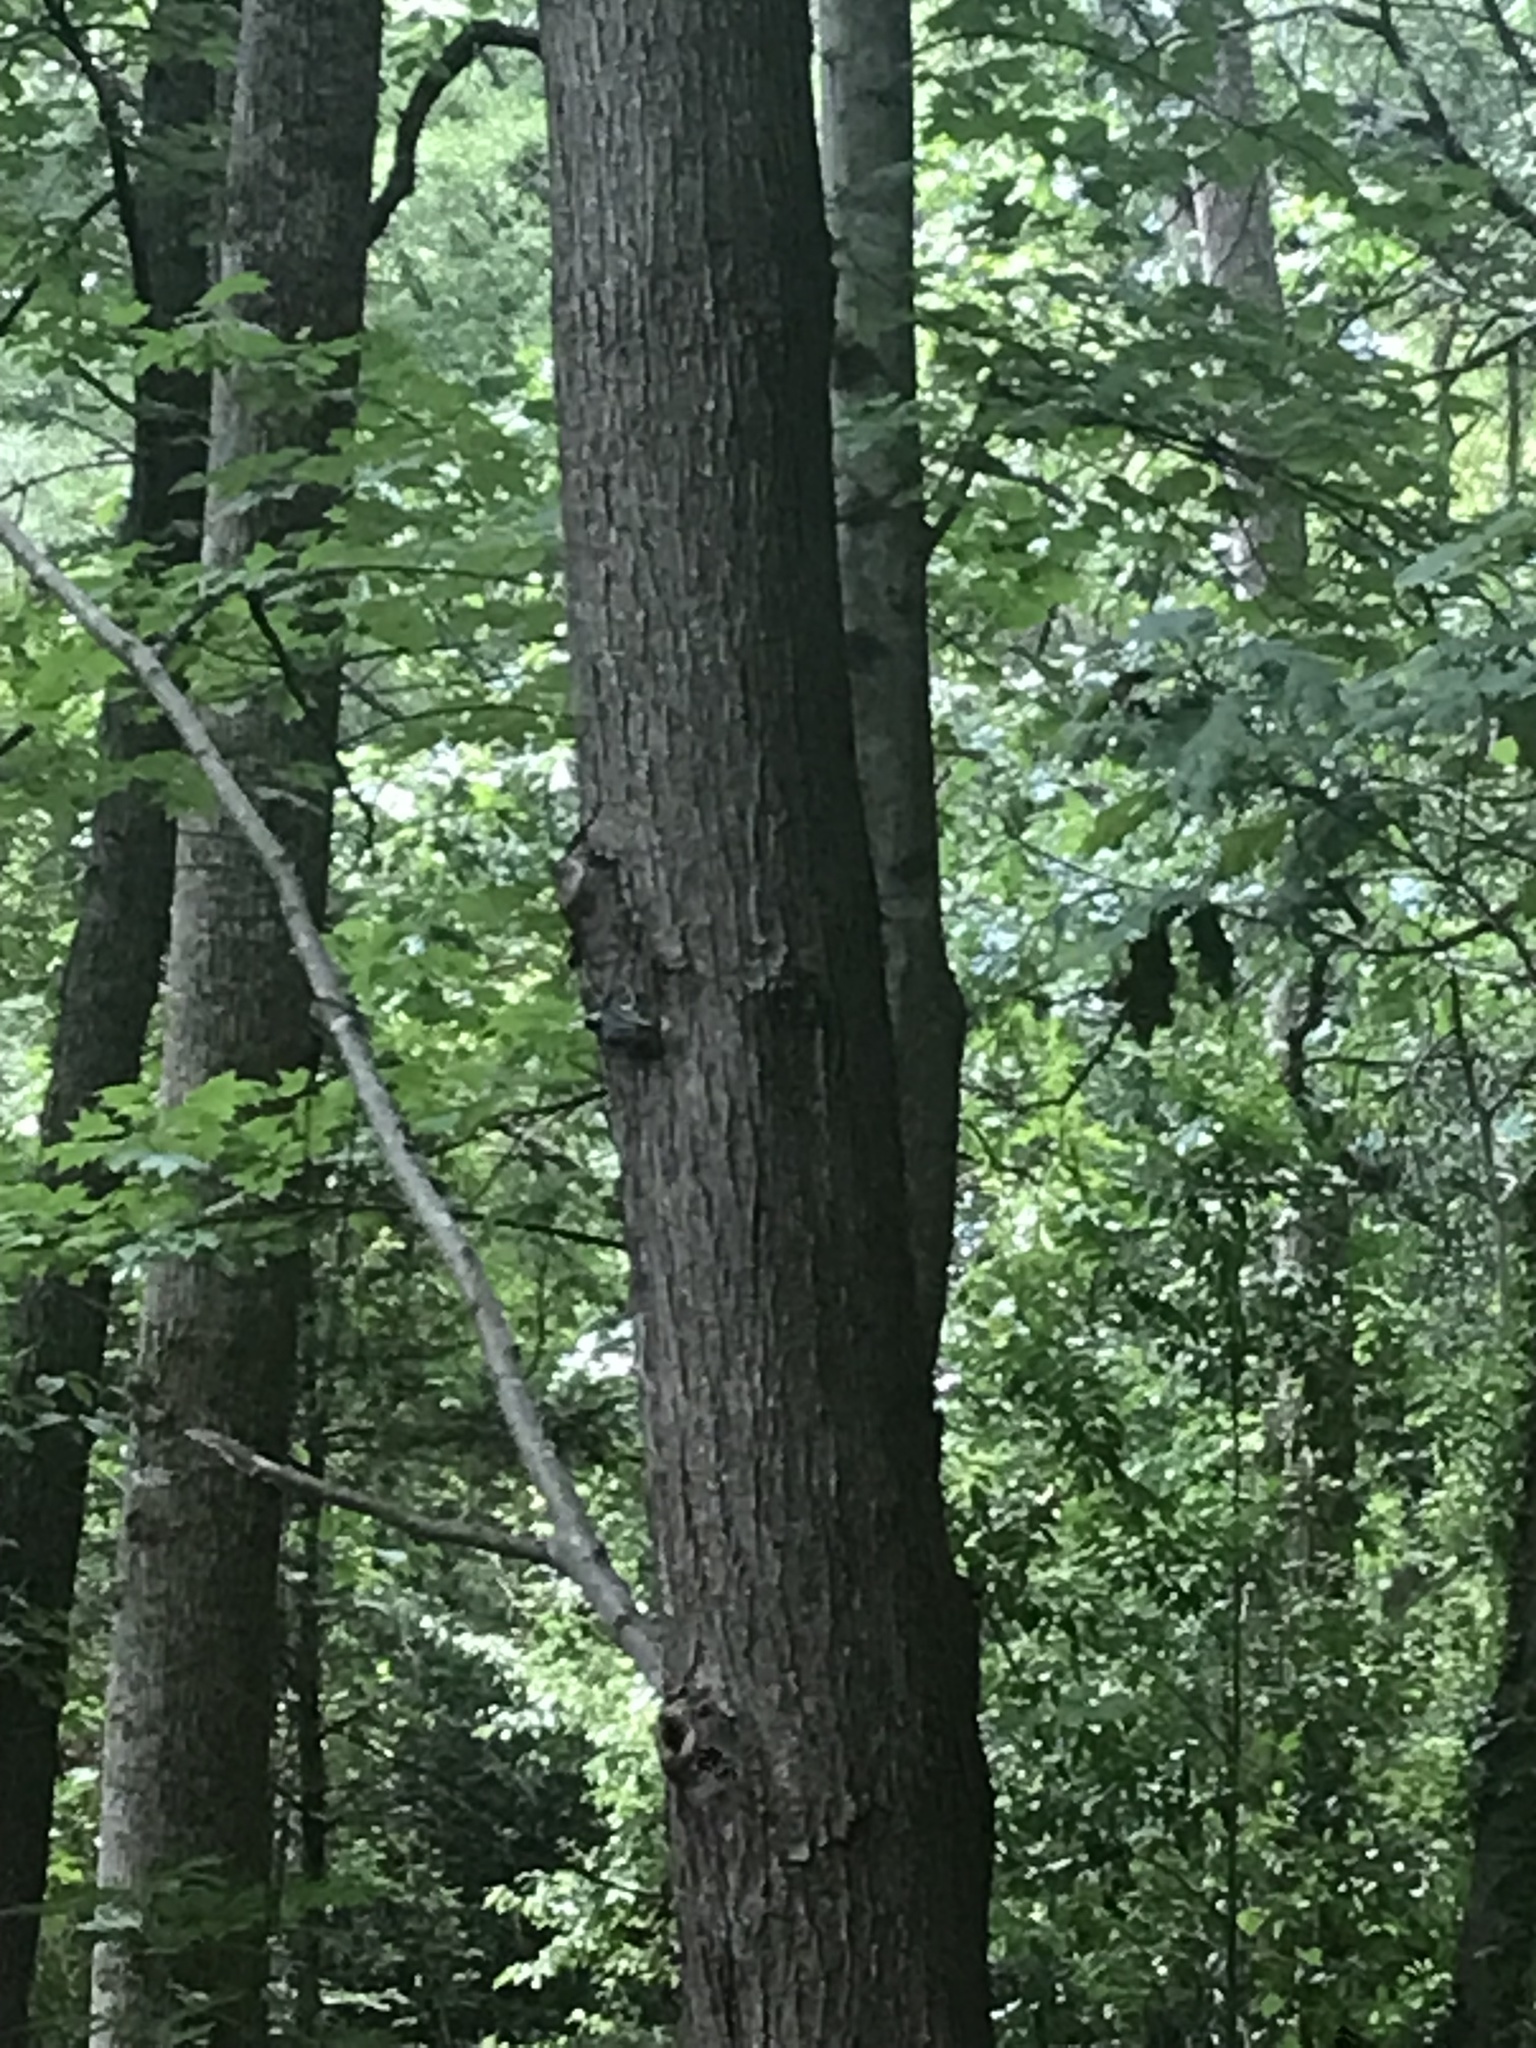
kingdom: Animalia
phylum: Chordata
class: Aves
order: Passeriformes
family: Sittidae
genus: Sitta
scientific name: Sitta carolinensis
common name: White-breasted nuthatch
